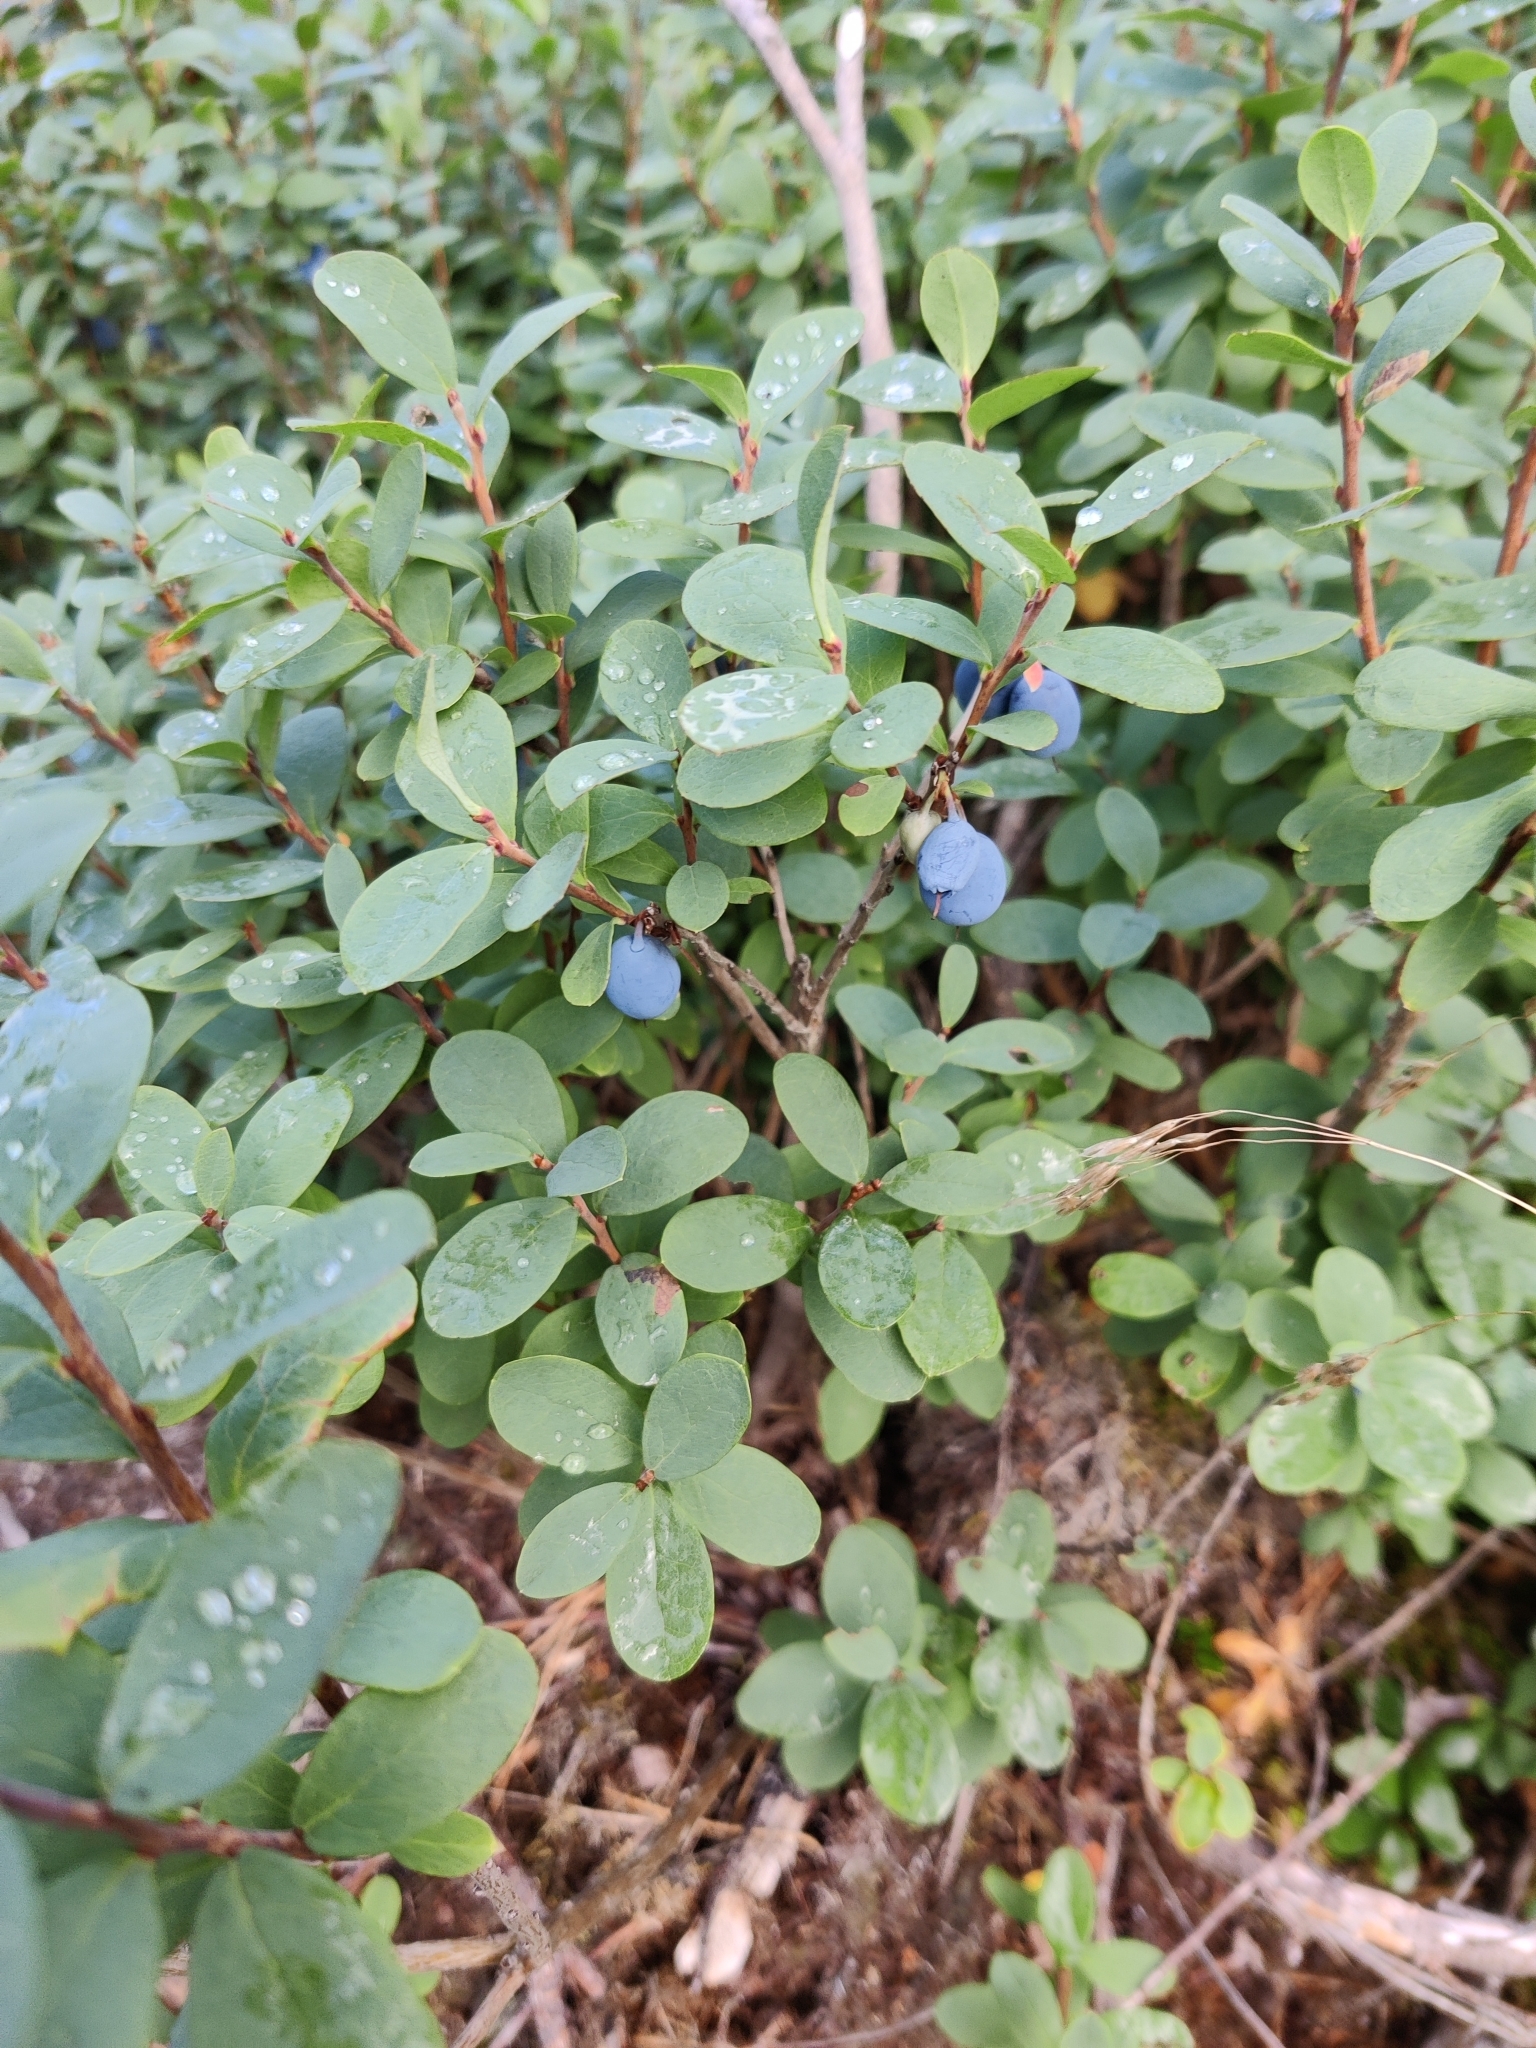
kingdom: Plantae
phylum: Tracheophyta
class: Magnoliopsida
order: Ericales
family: Ericaceae
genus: Vaccinium
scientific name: Vaccinium uliginosum
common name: Bog bilberry
